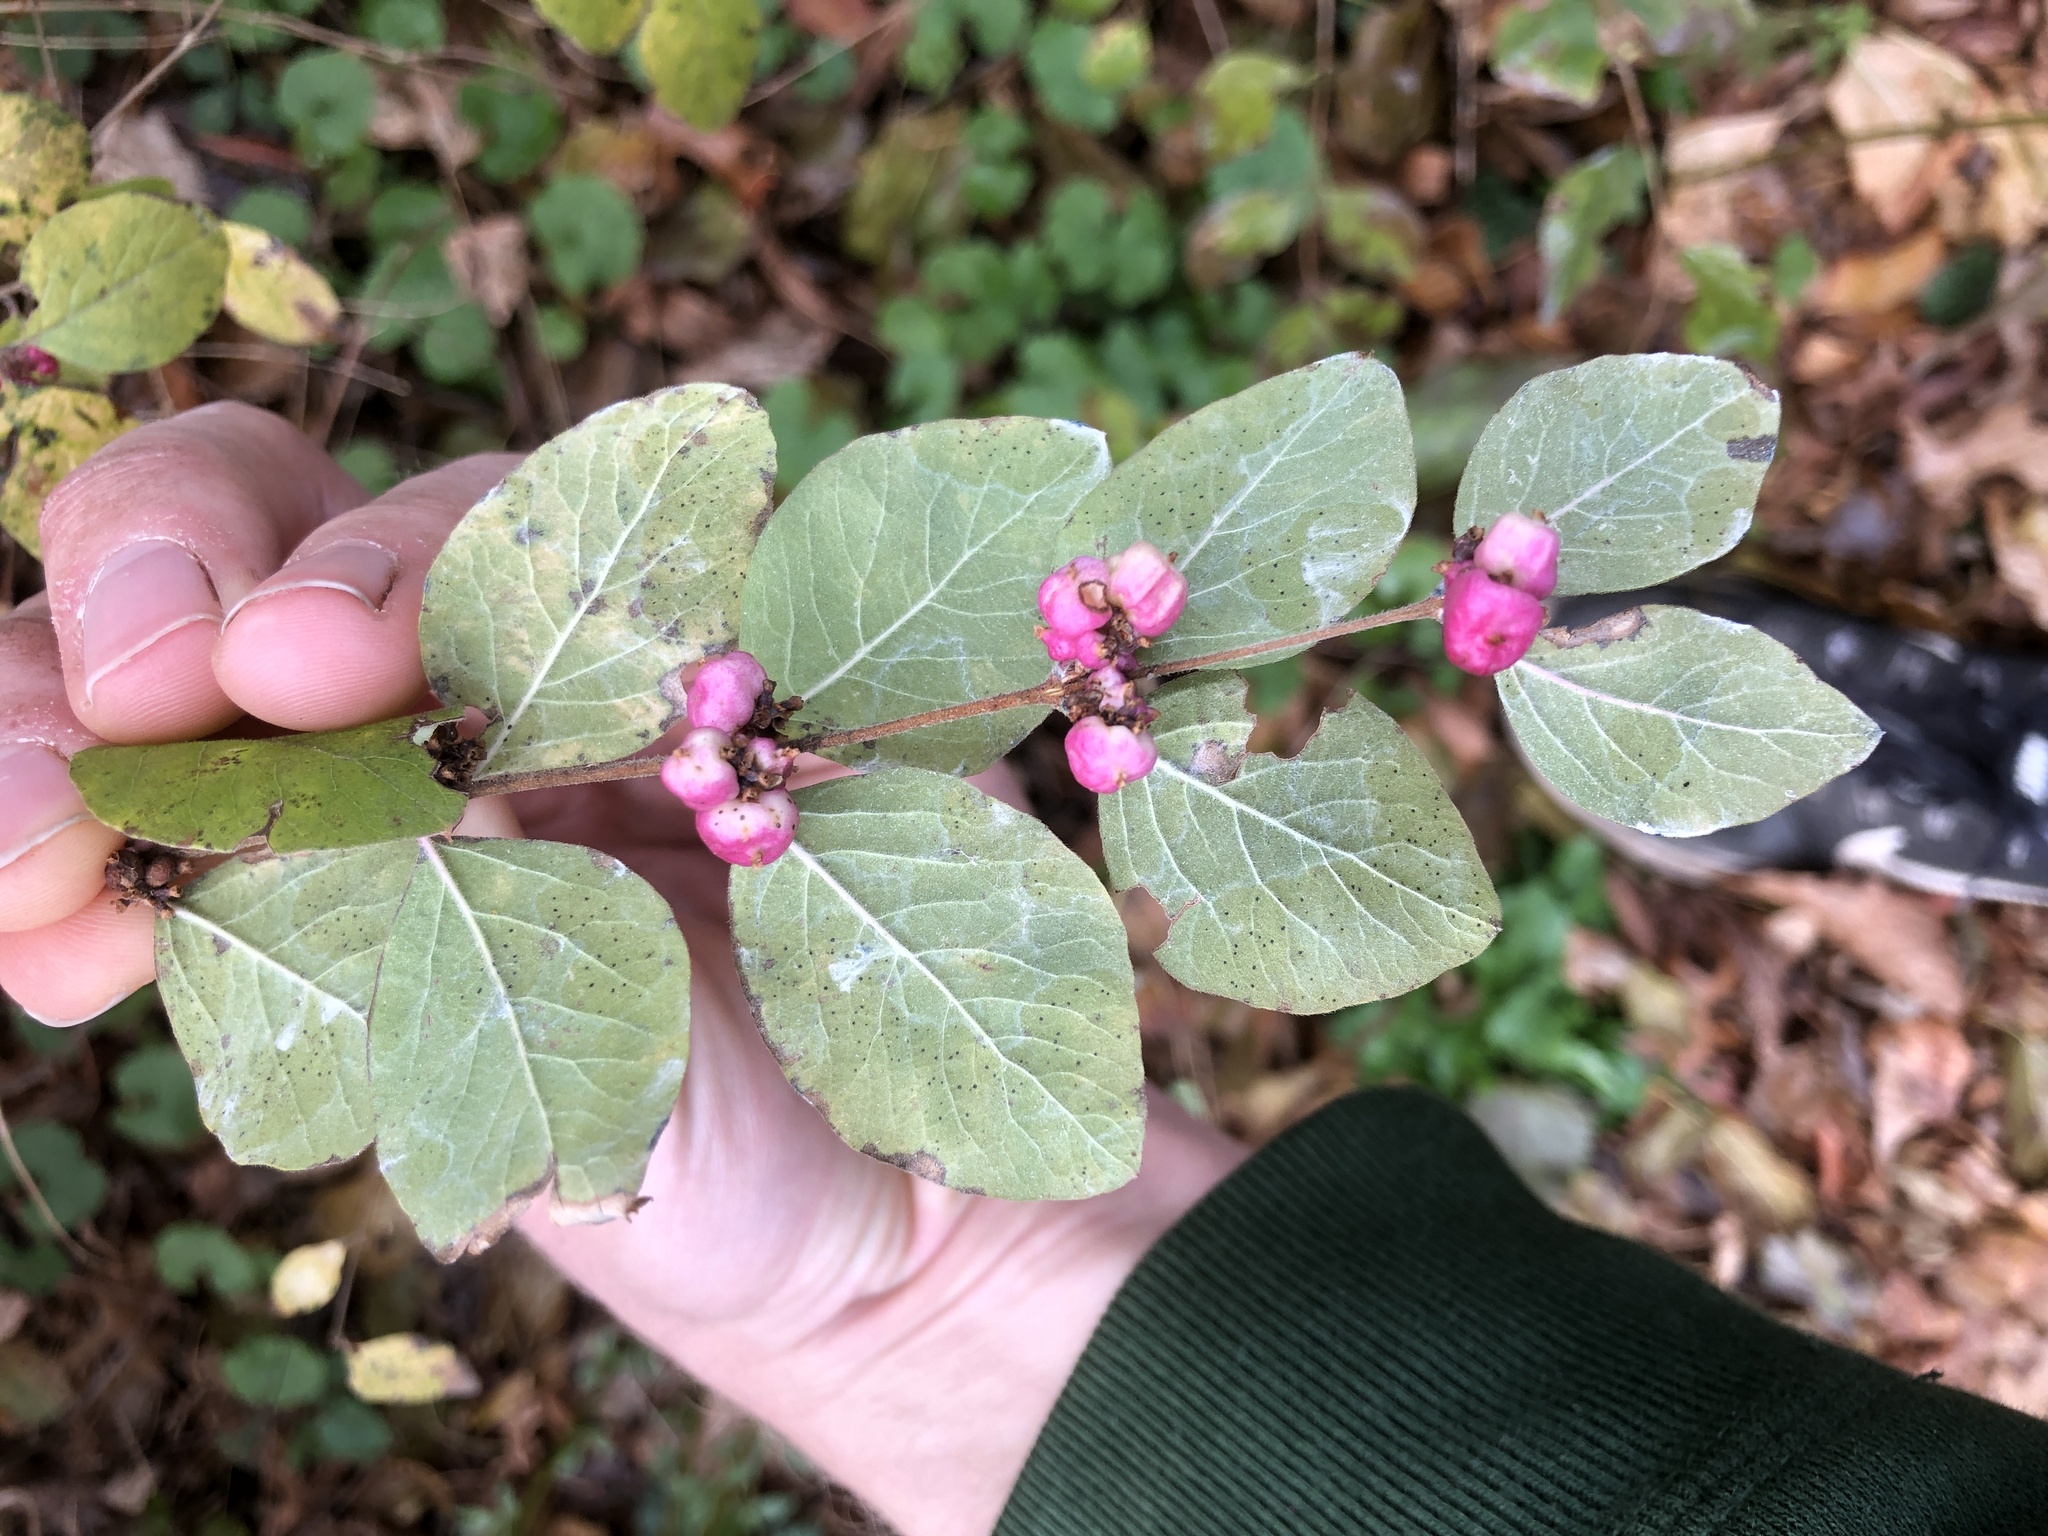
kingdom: Plantae
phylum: Tracheophyta
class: Magnoliopsida
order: Dipsacales
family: Caprifoliaceae
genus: Symphoricarpos
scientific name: Symphoricarpos orbiculatus
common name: Coralberry
